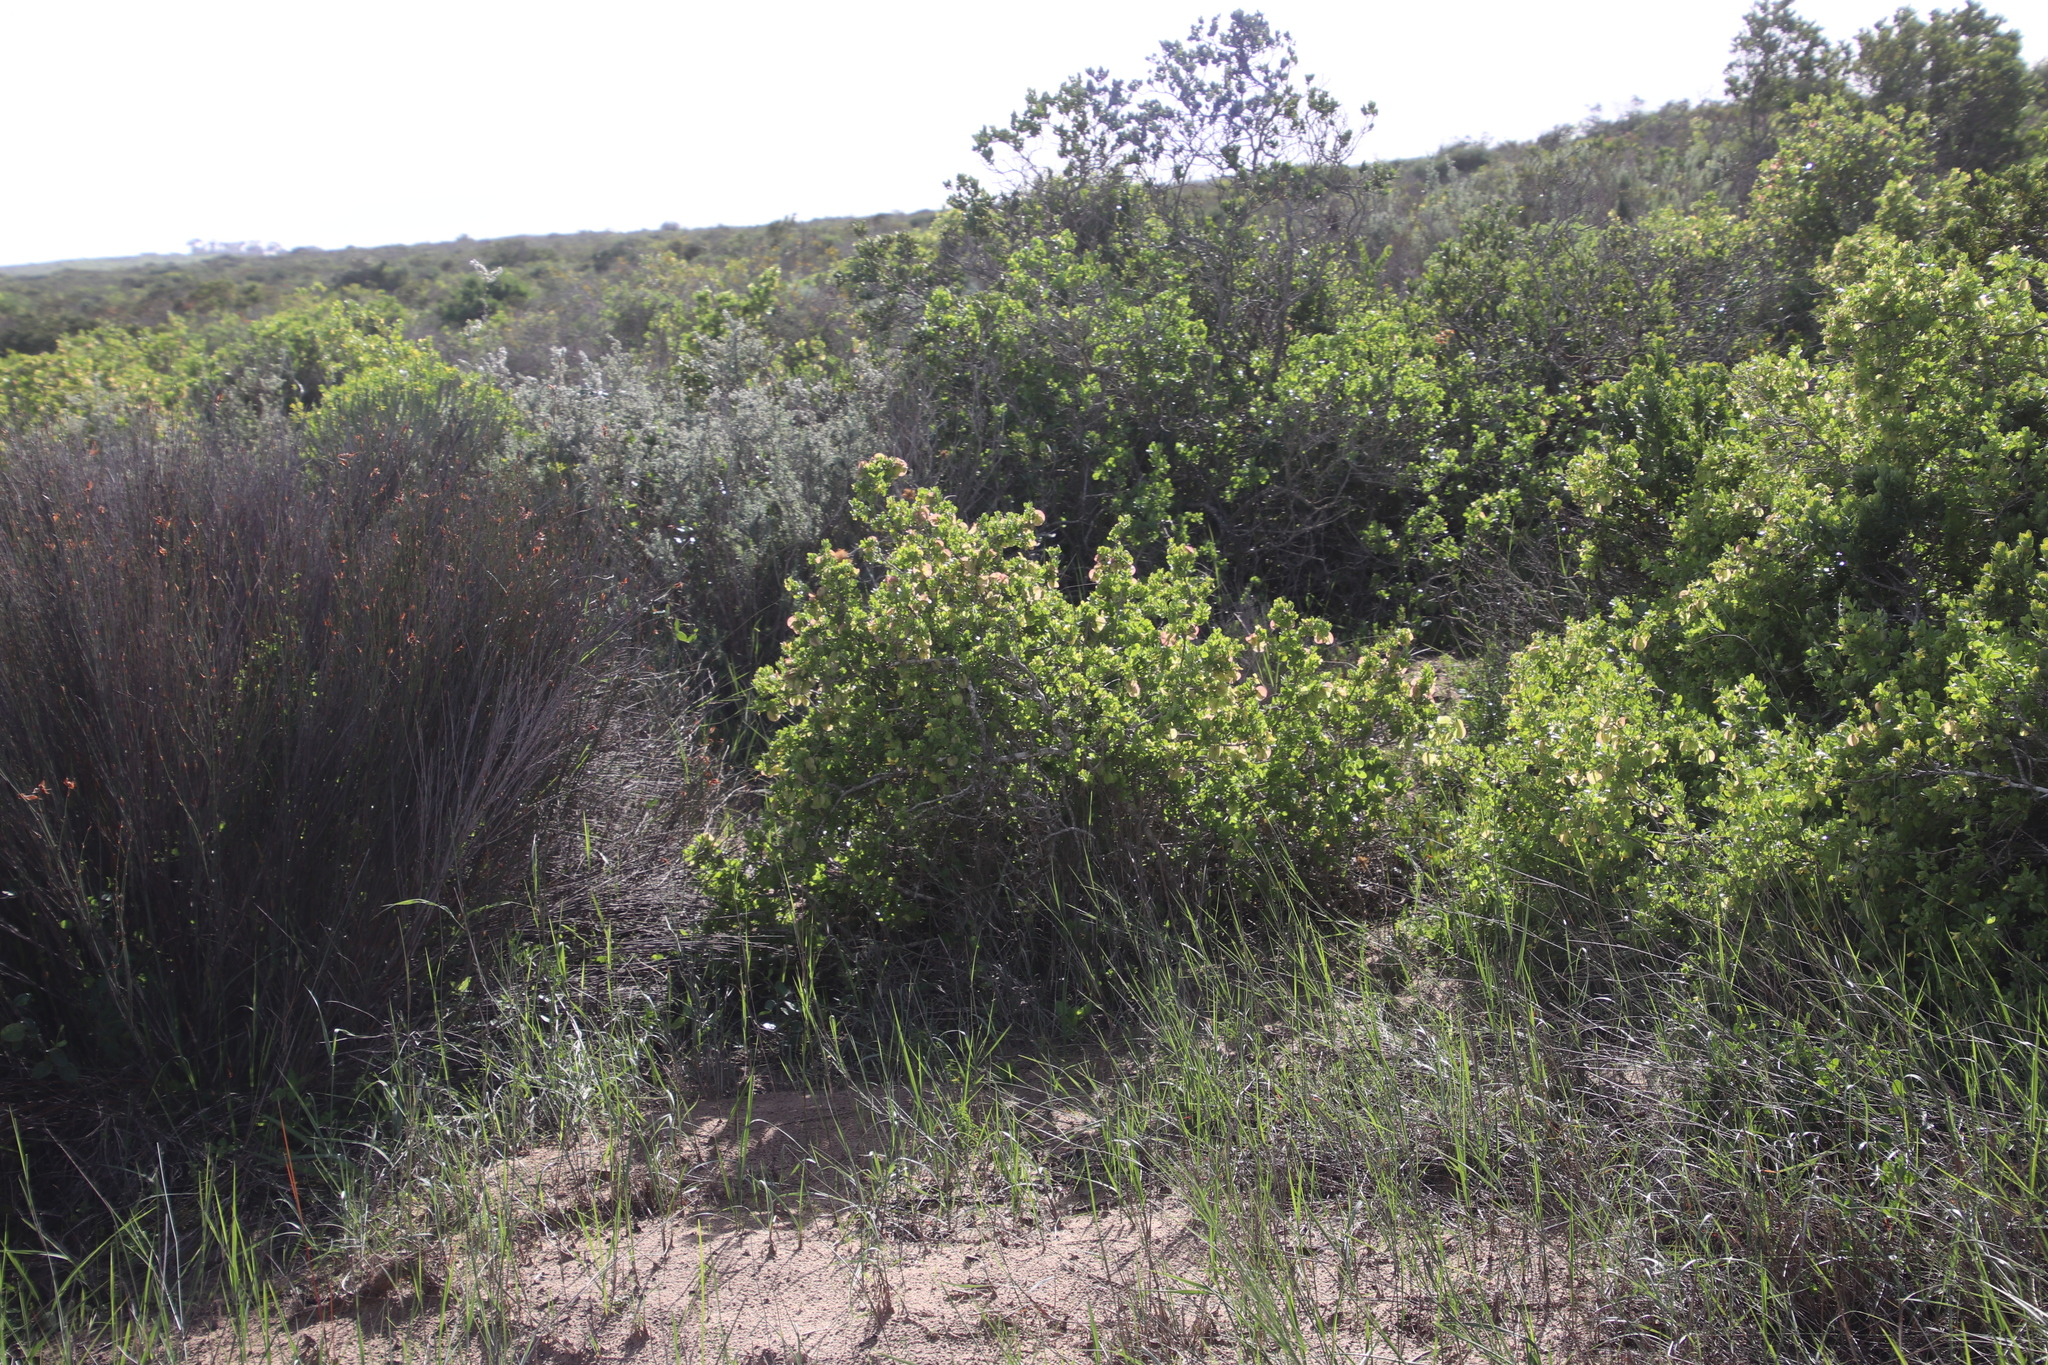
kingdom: Plantae
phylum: Tracheophyta
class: Magnoliopsida
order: Zygophyllales
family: Zygophyllaceae
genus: Roepera
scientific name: Roepera morgsana
